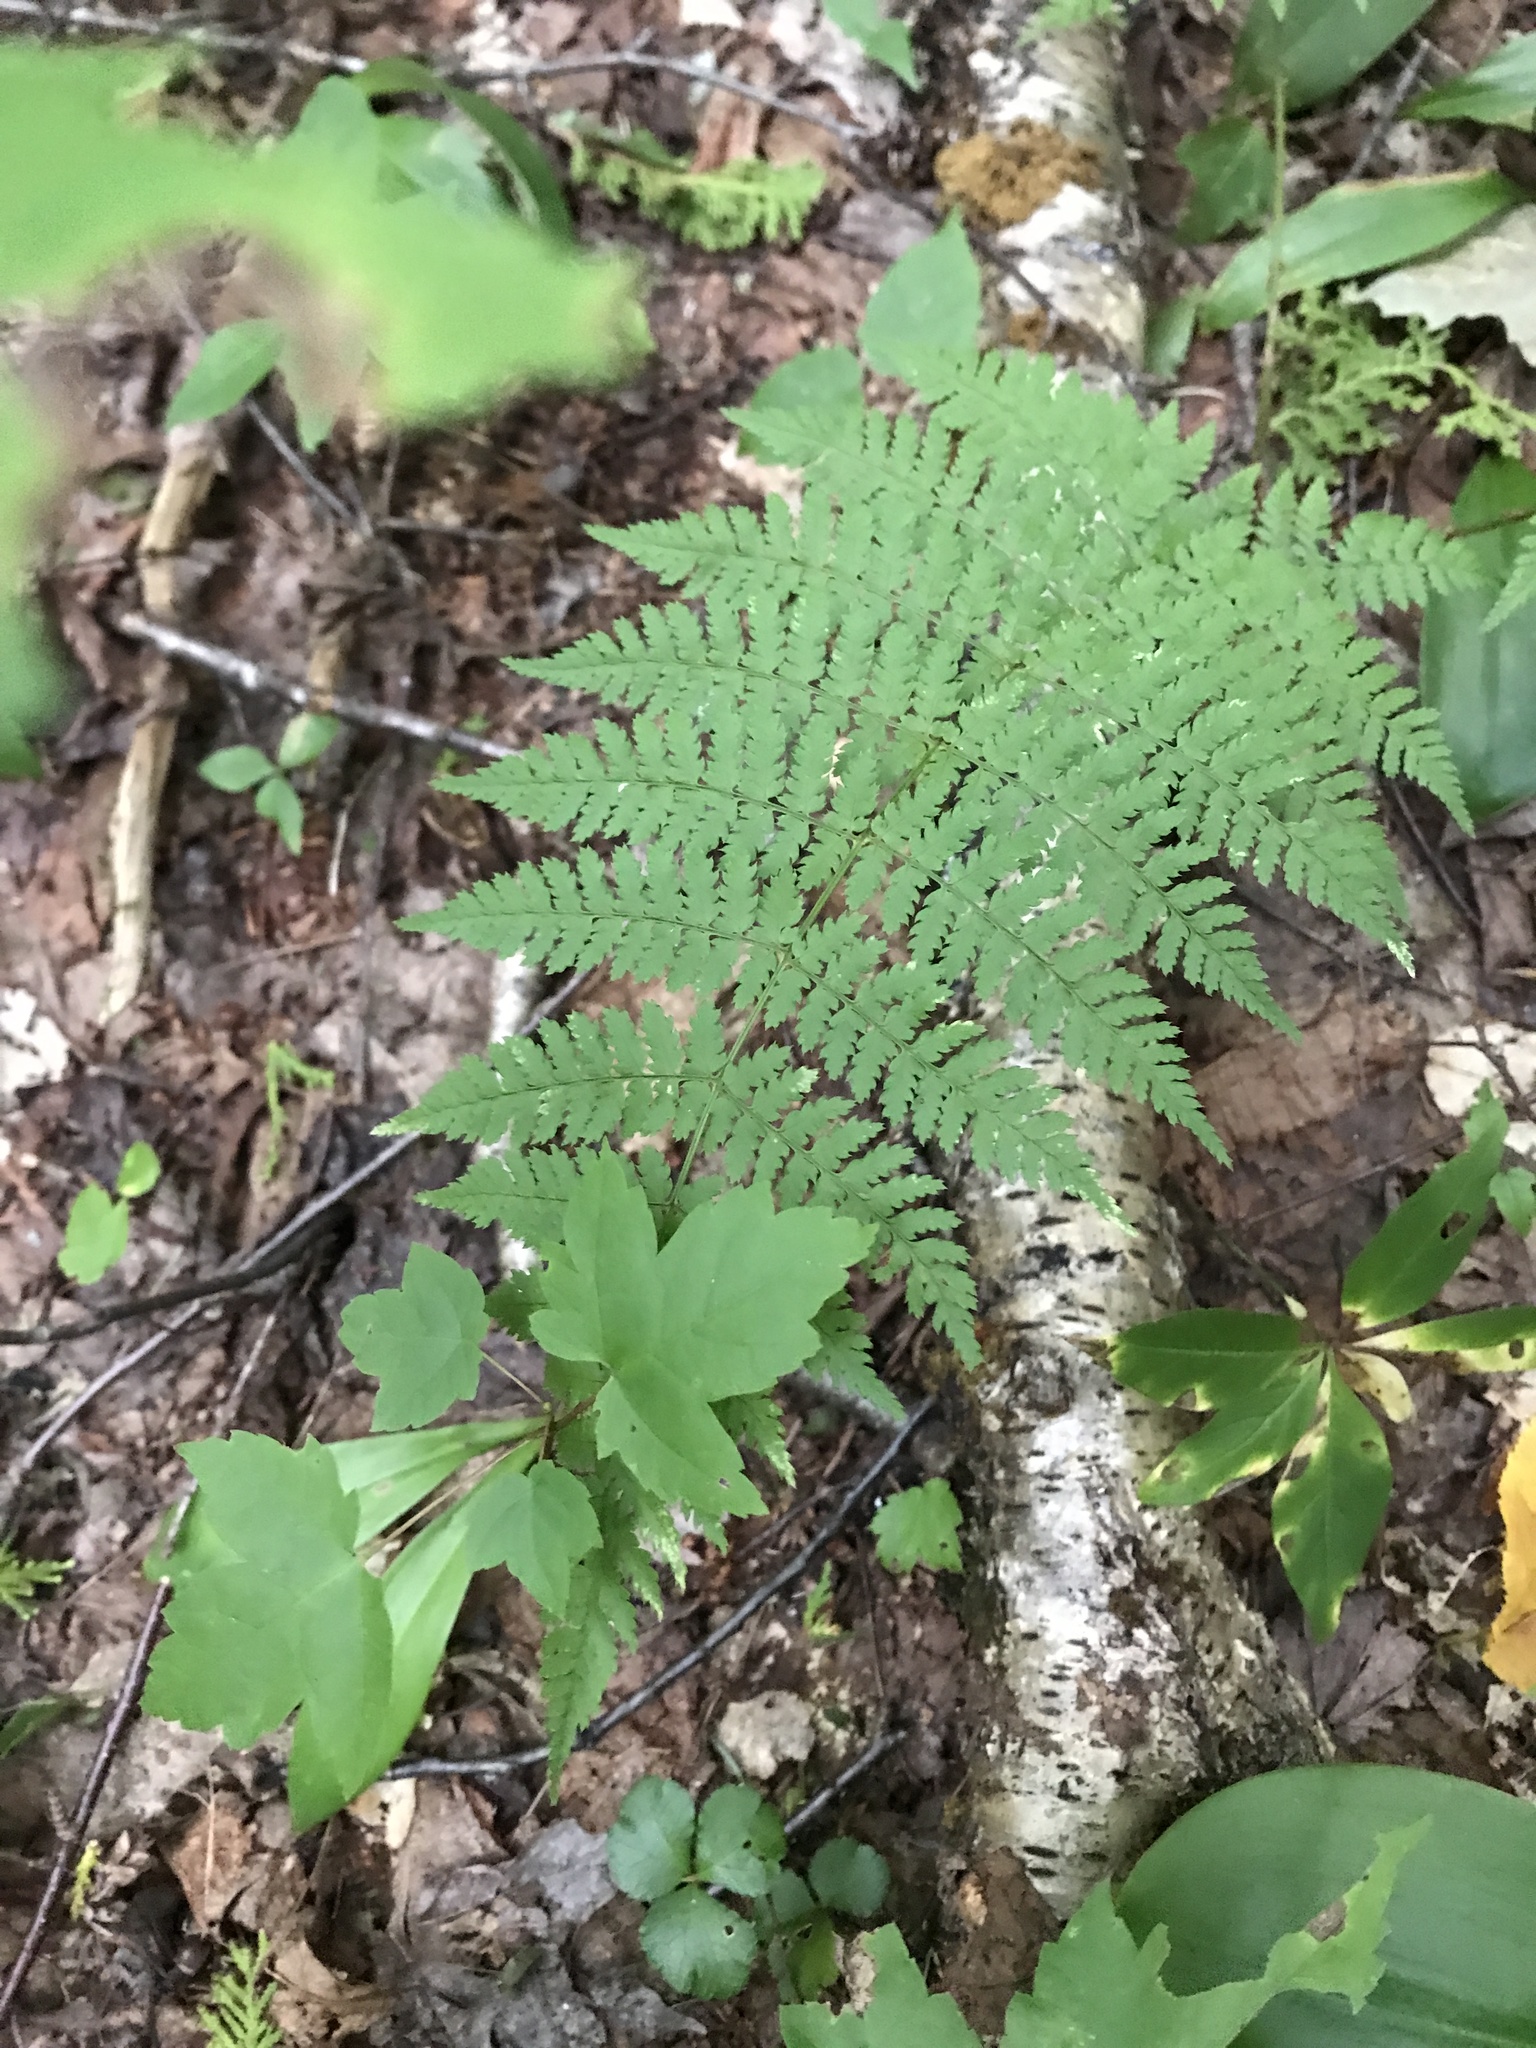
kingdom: Plantae
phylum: Tracheophyta
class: Polypodiopsida
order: Polypodiales
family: Dryopteridaceae
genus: Dryopteris
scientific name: Dryopteris intermedia
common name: Evergreen wood fern
